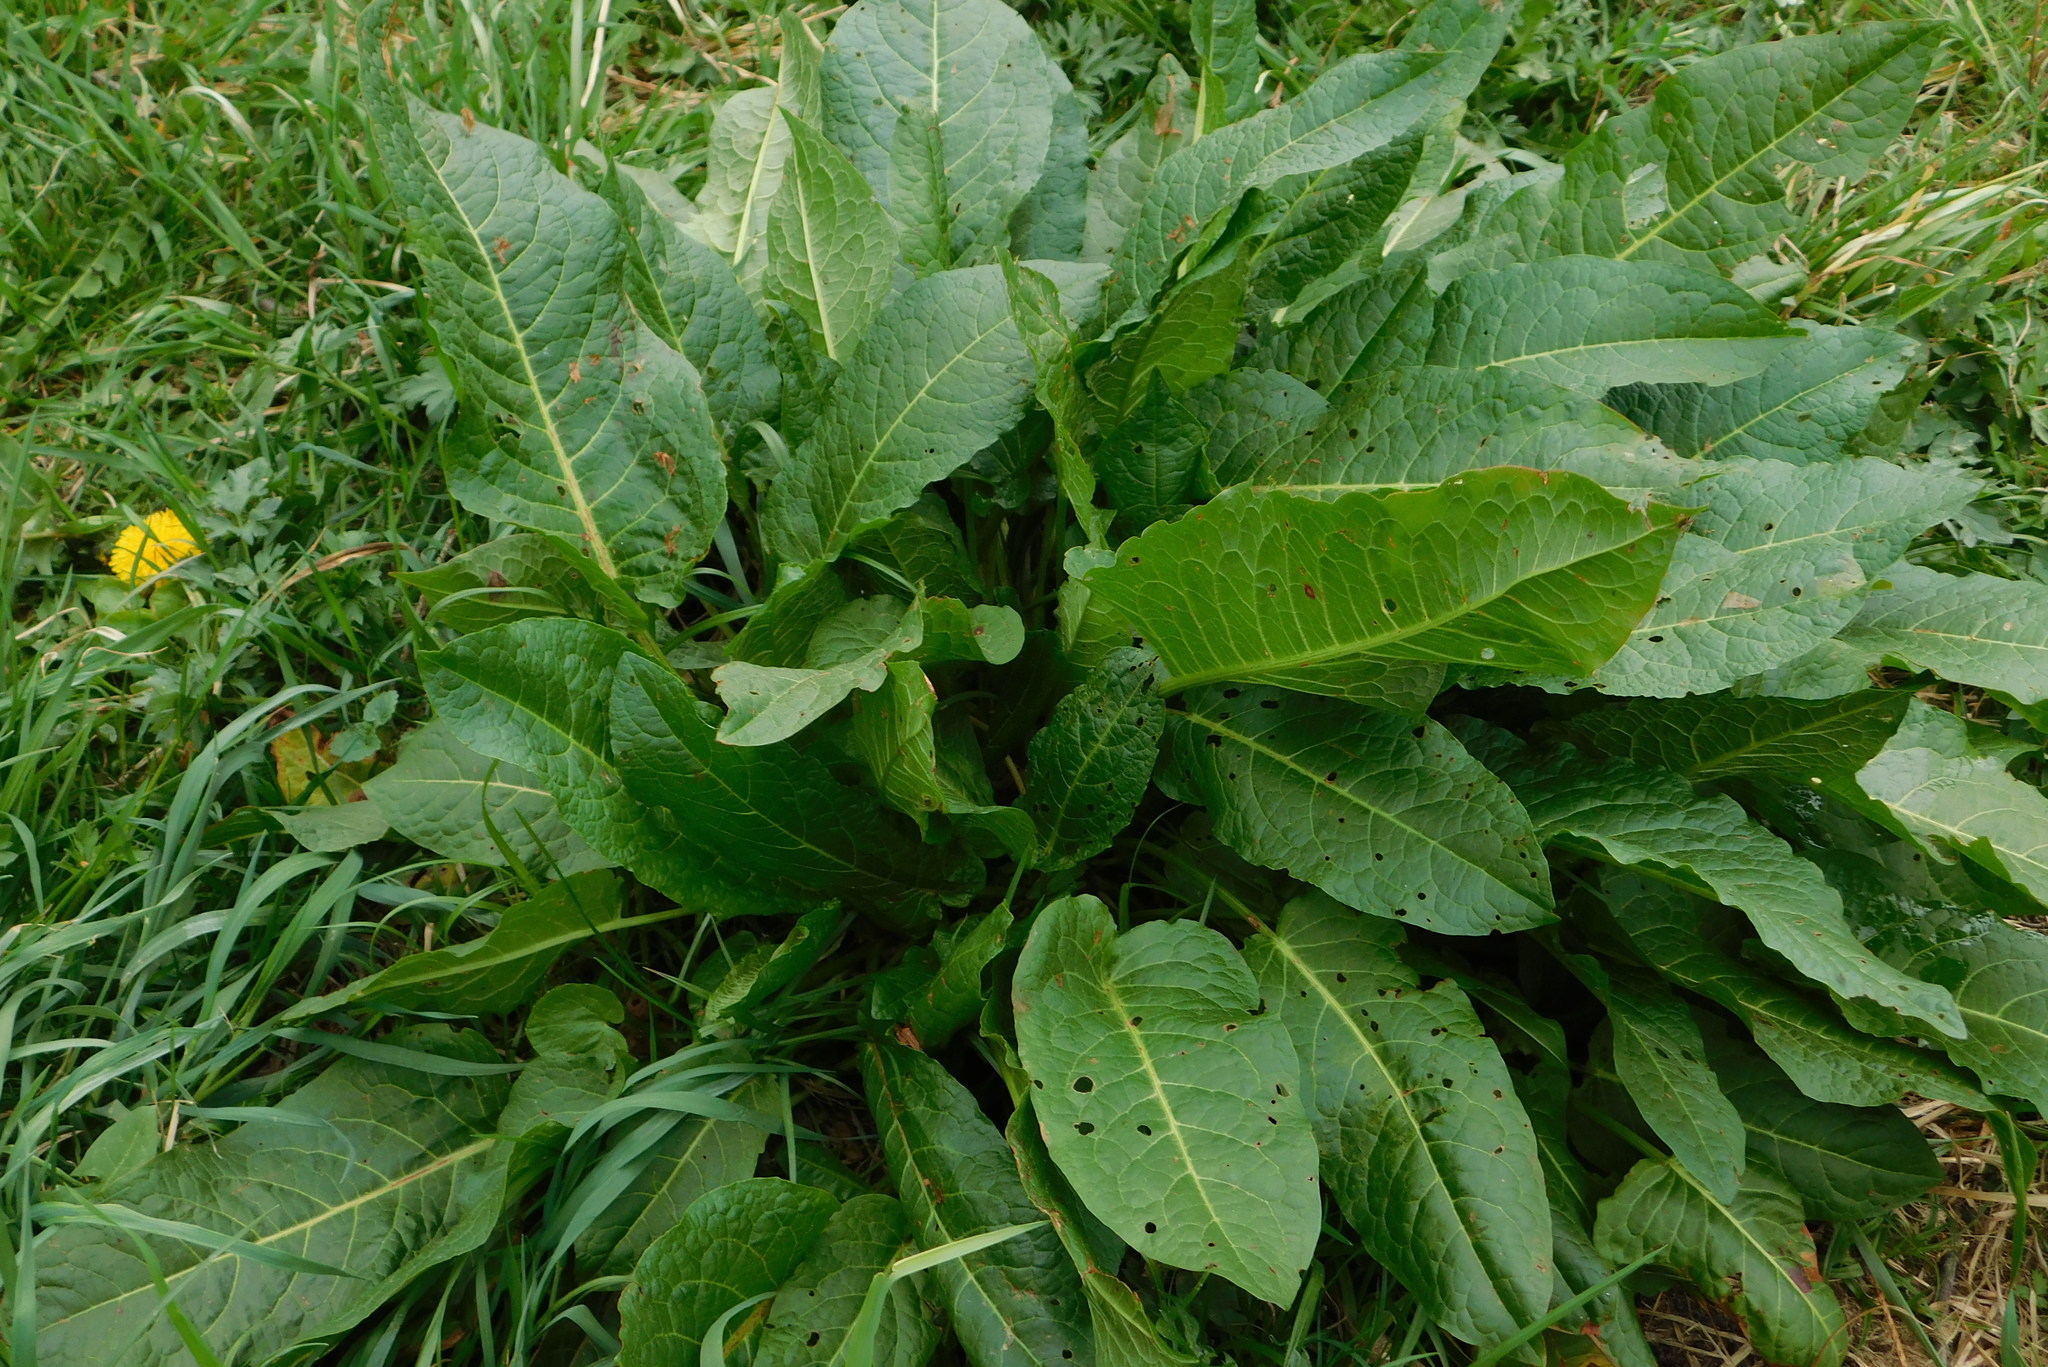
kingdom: Plantae
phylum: Tracheophyta
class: Magnoliopsida
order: Caryophyllales
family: Polygonaceae
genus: Rumex
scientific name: Rumex obtusifolius
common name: Bitter dock
